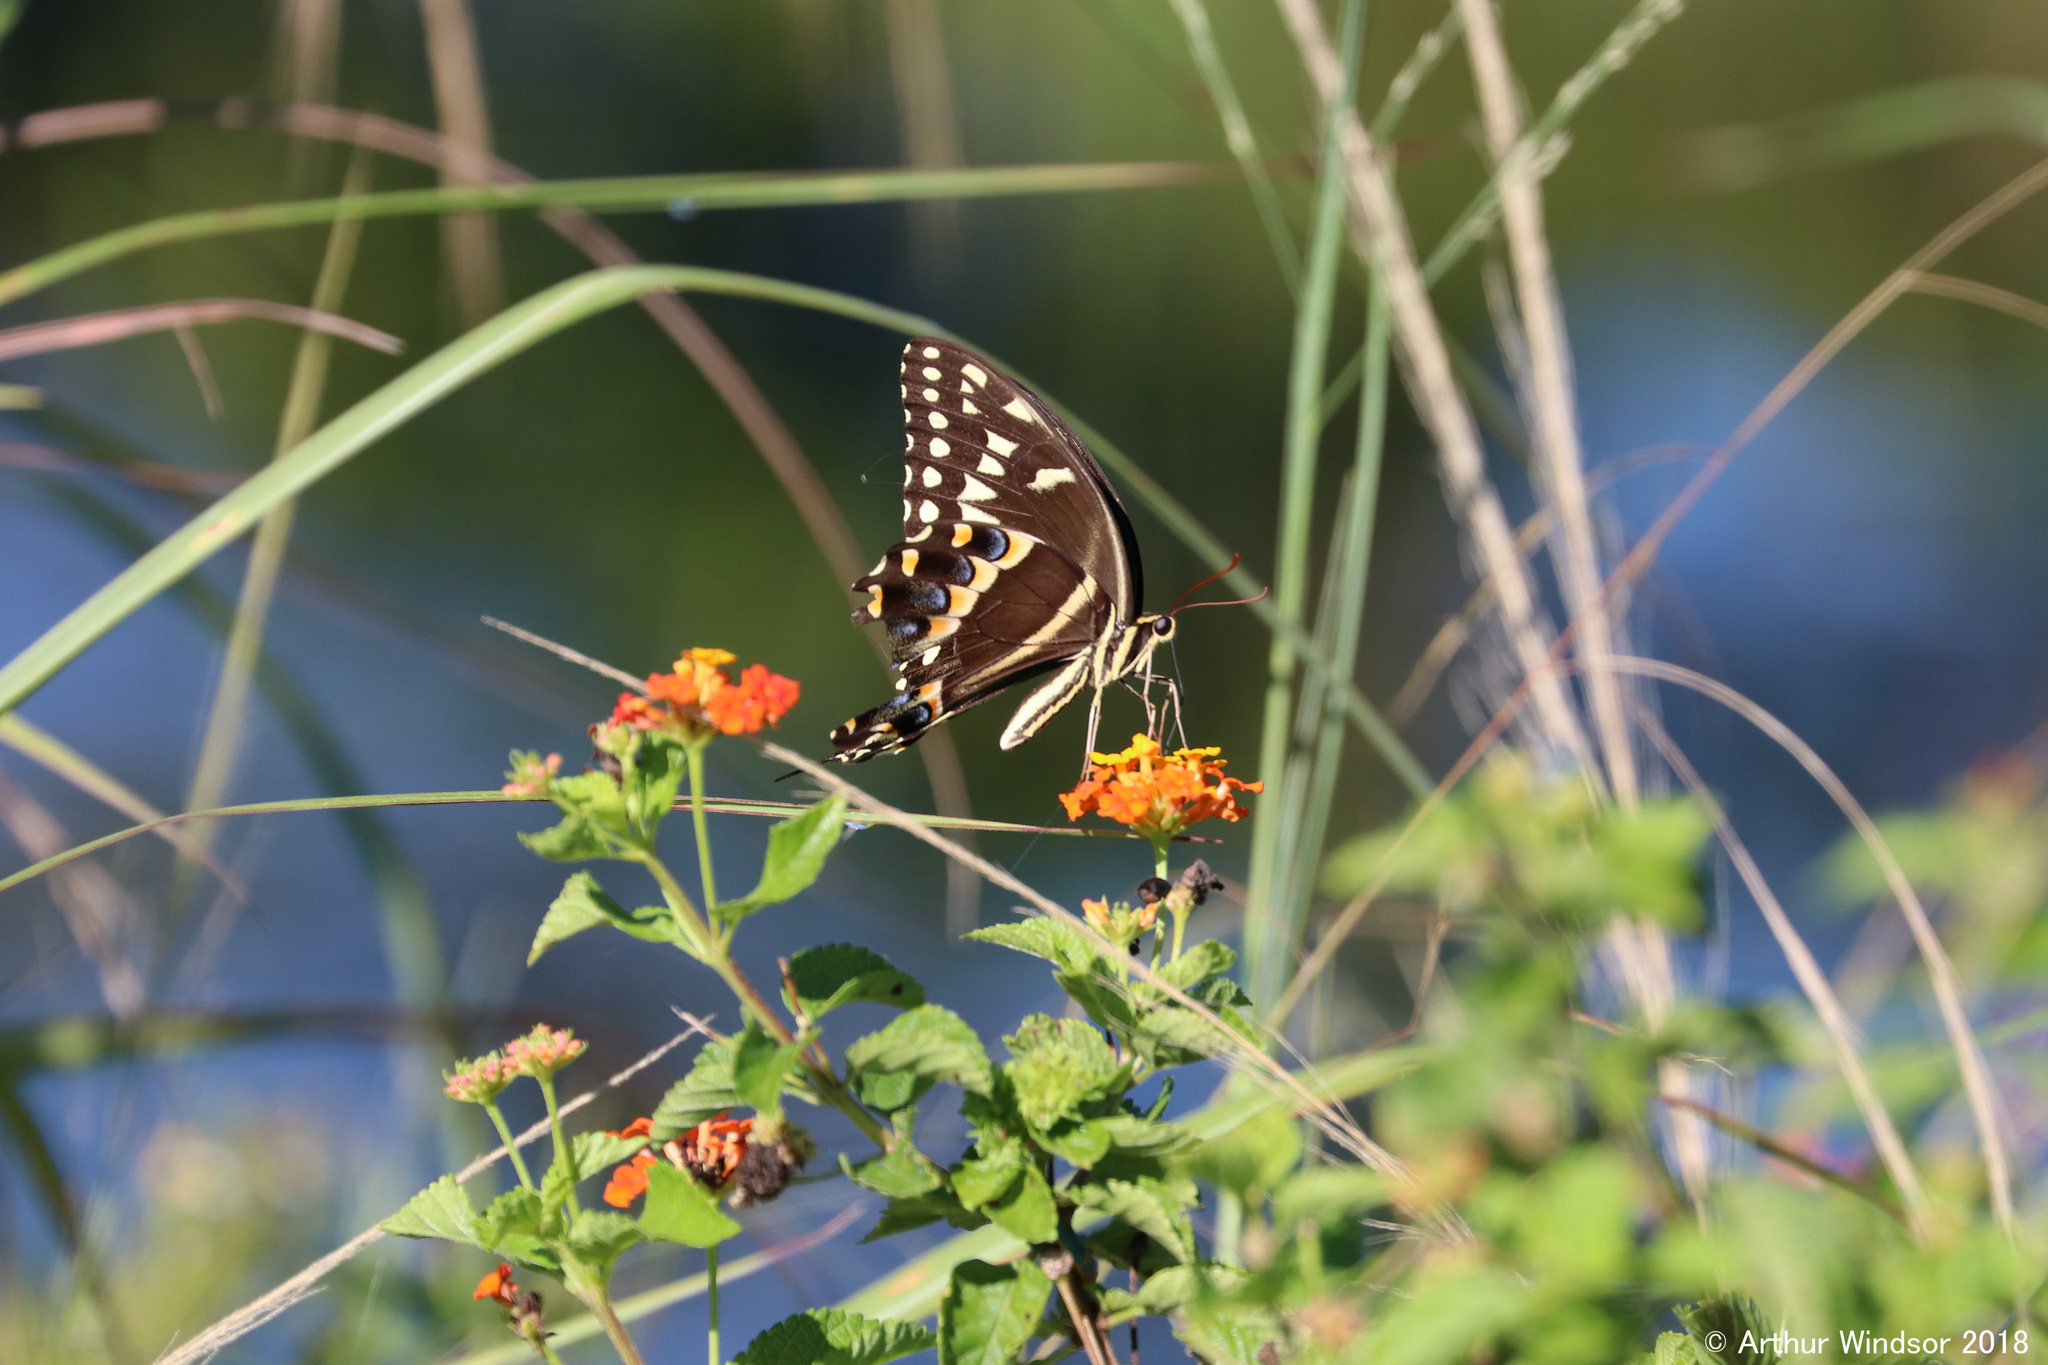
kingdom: Animalia
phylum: Arthropoda
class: Insecta
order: Lepidoptera
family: Papilionidae
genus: Papilio
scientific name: Papilio palamedes
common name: Palamedes swallowtail
